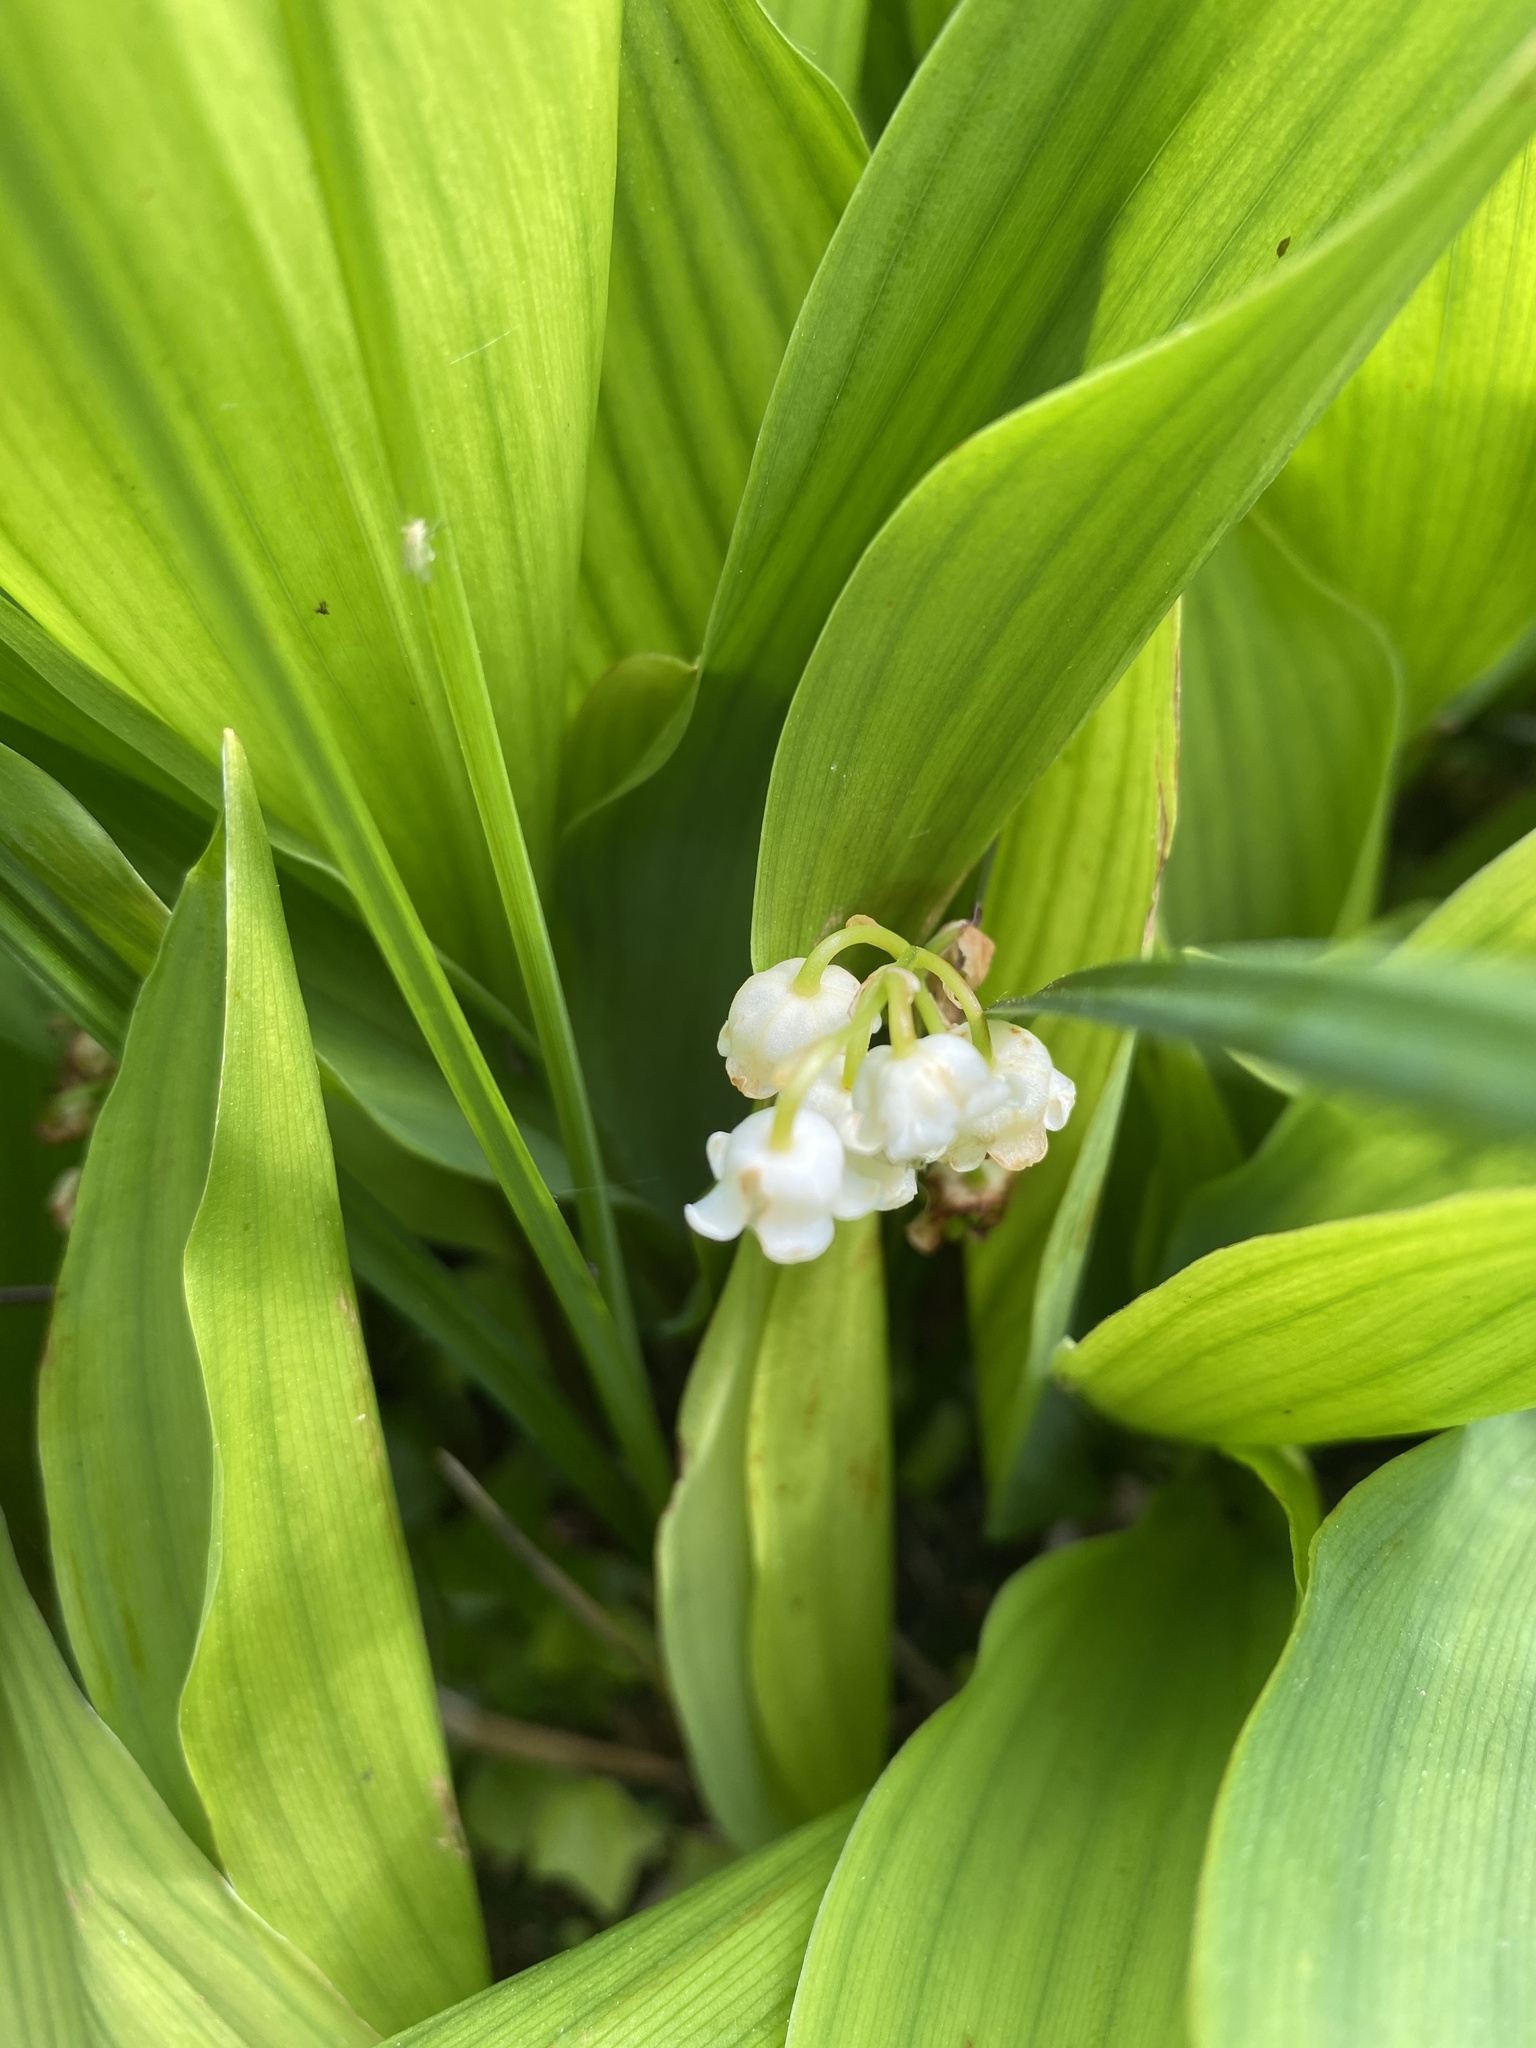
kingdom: Plantae
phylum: Tracheophyta
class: Liliopsida
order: Asparagales
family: Asparagaceae
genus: Convallaria
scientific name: Convallaria majalis
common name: Lily-of-the-valley
